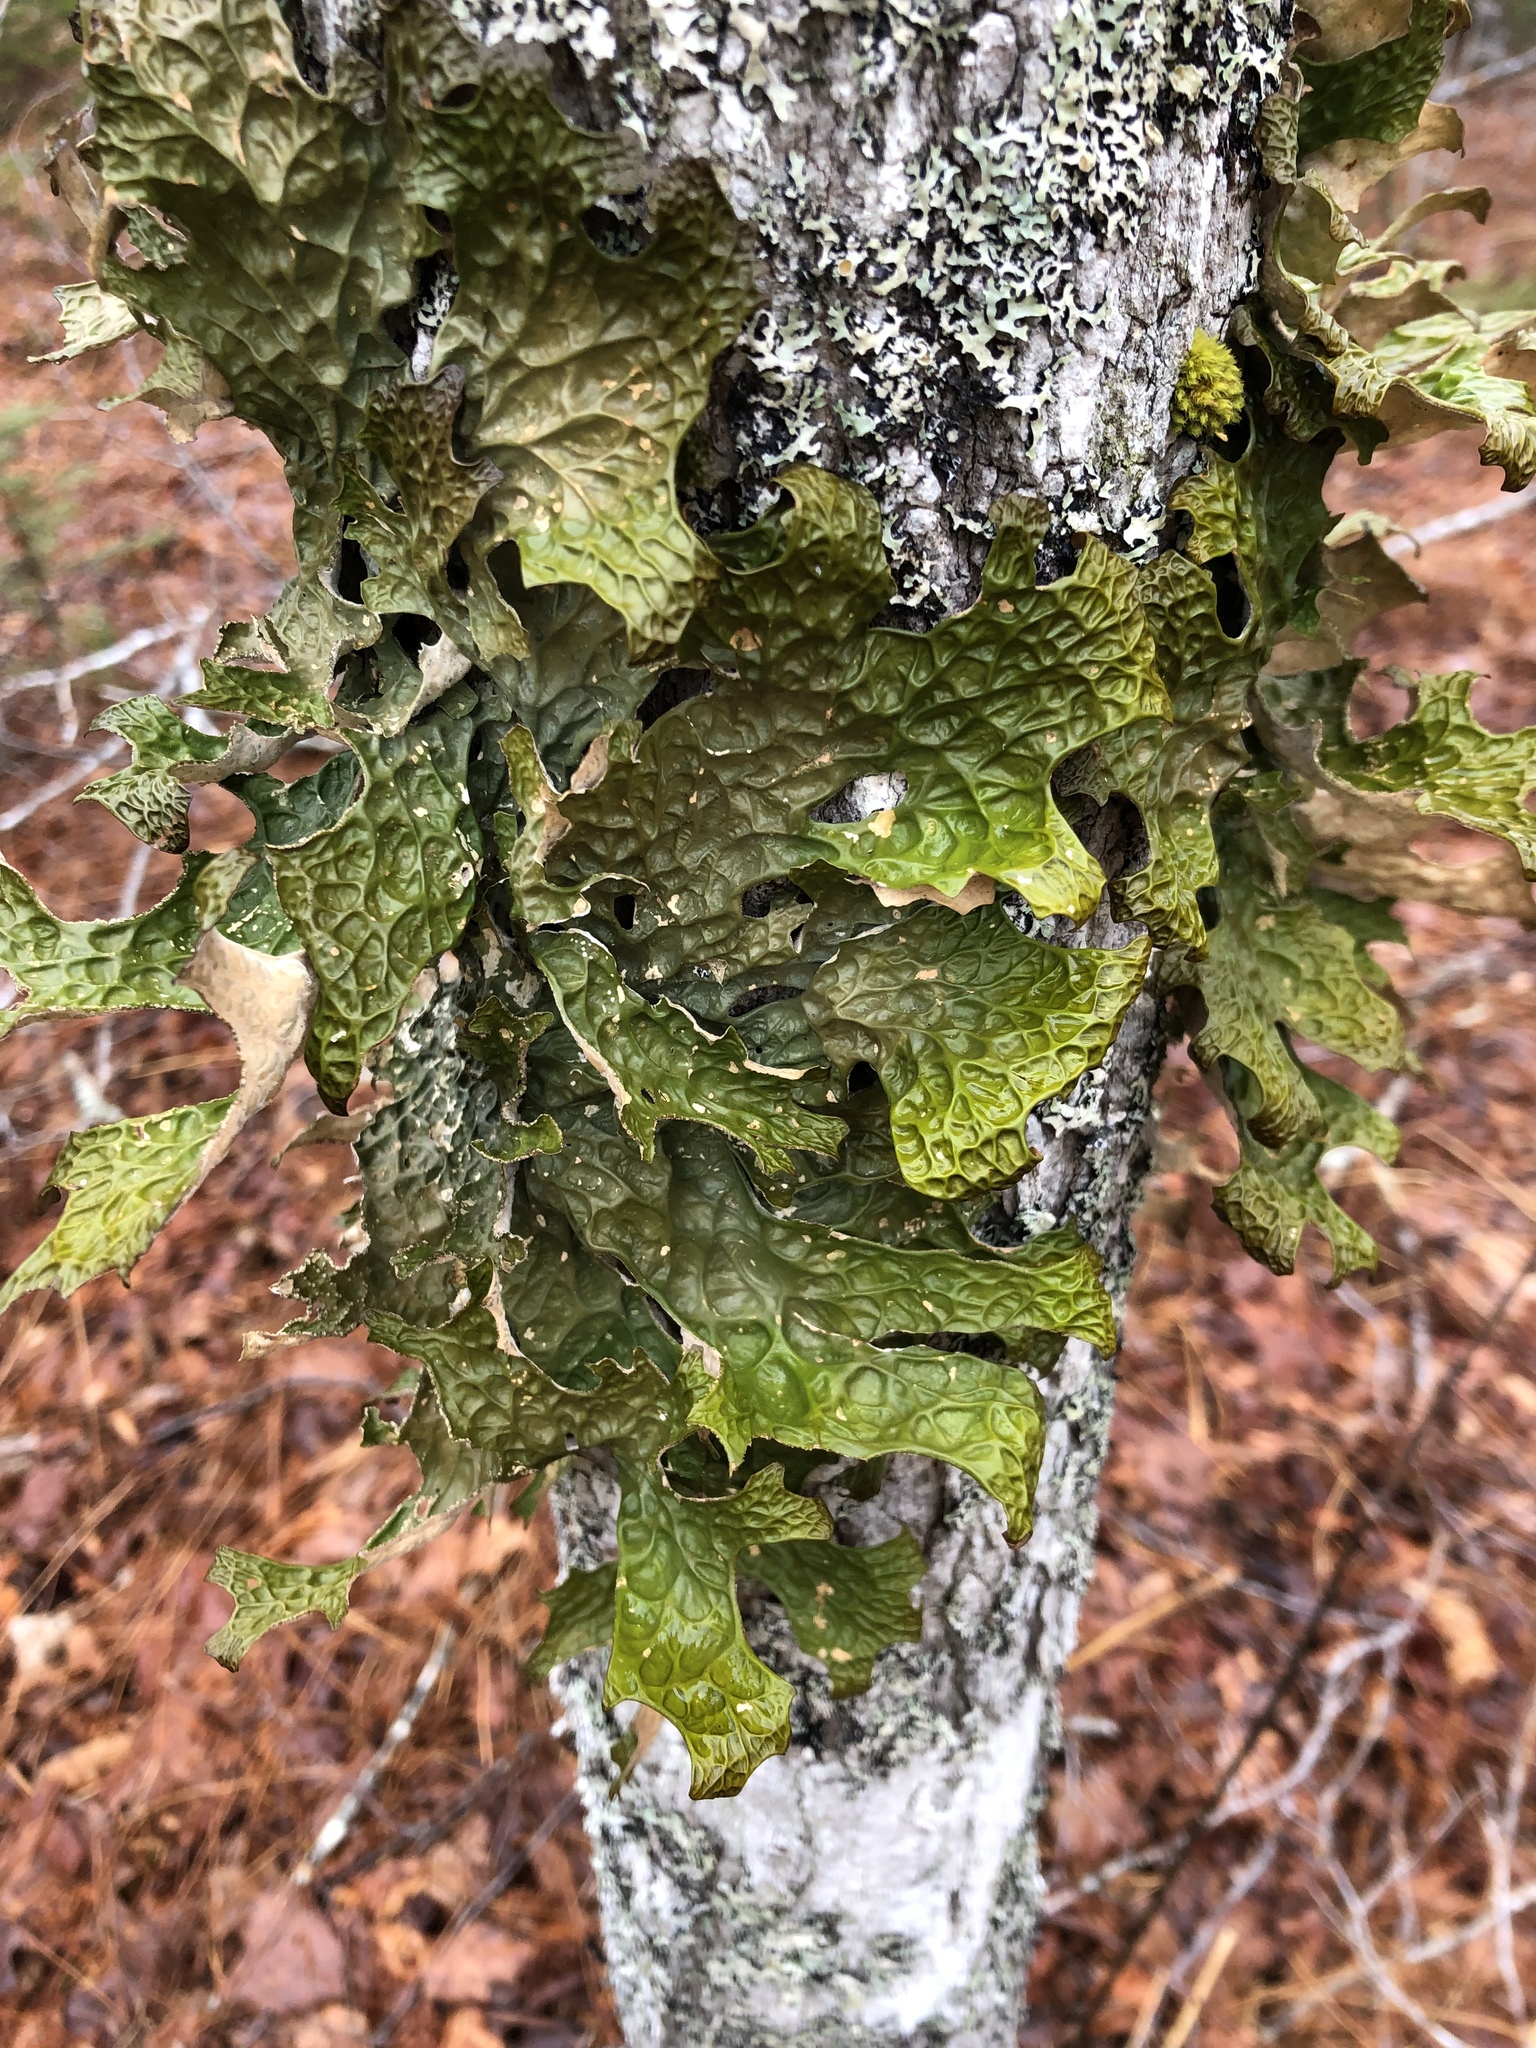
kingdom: Fungi
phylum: Ascomycota
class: Lecanoromycetes
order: Peltigerales
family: Lobariaceae
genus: Lobaria
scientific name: Lobaria pulmonaria
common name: Lungwort
